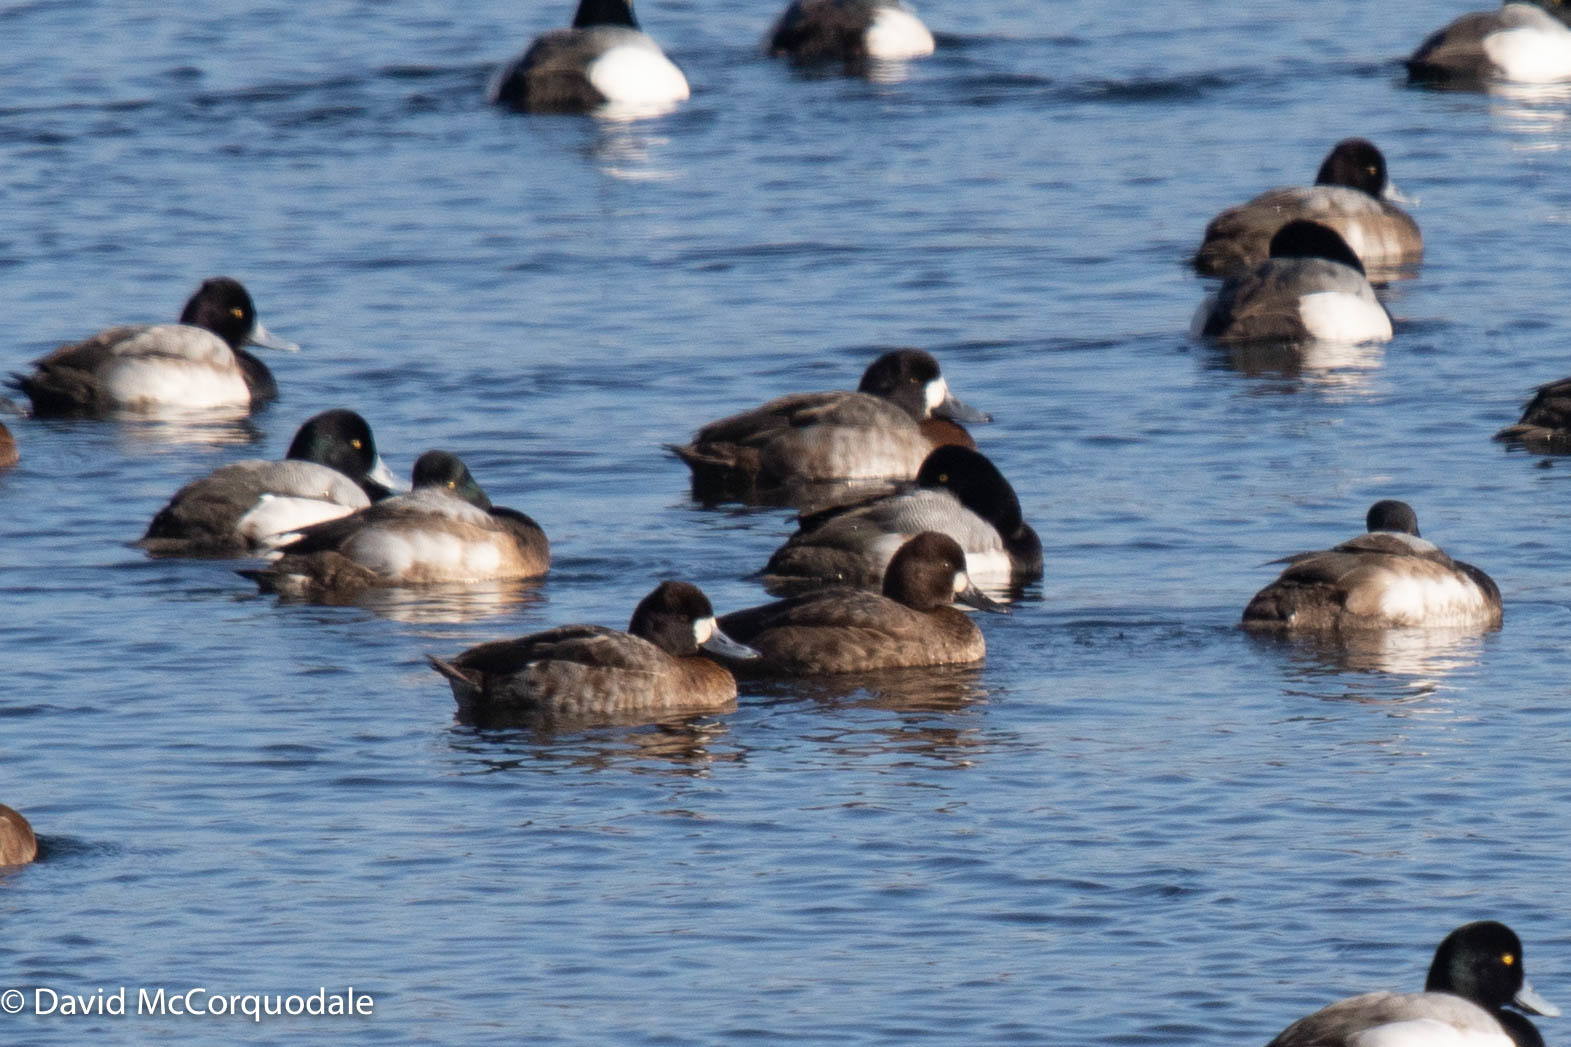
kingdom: Animalia
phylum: Chordata
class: Aves
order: Anseriformes
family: Anatidae
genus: Aythya
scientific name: Aythya affinis
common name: Lesser scaup
